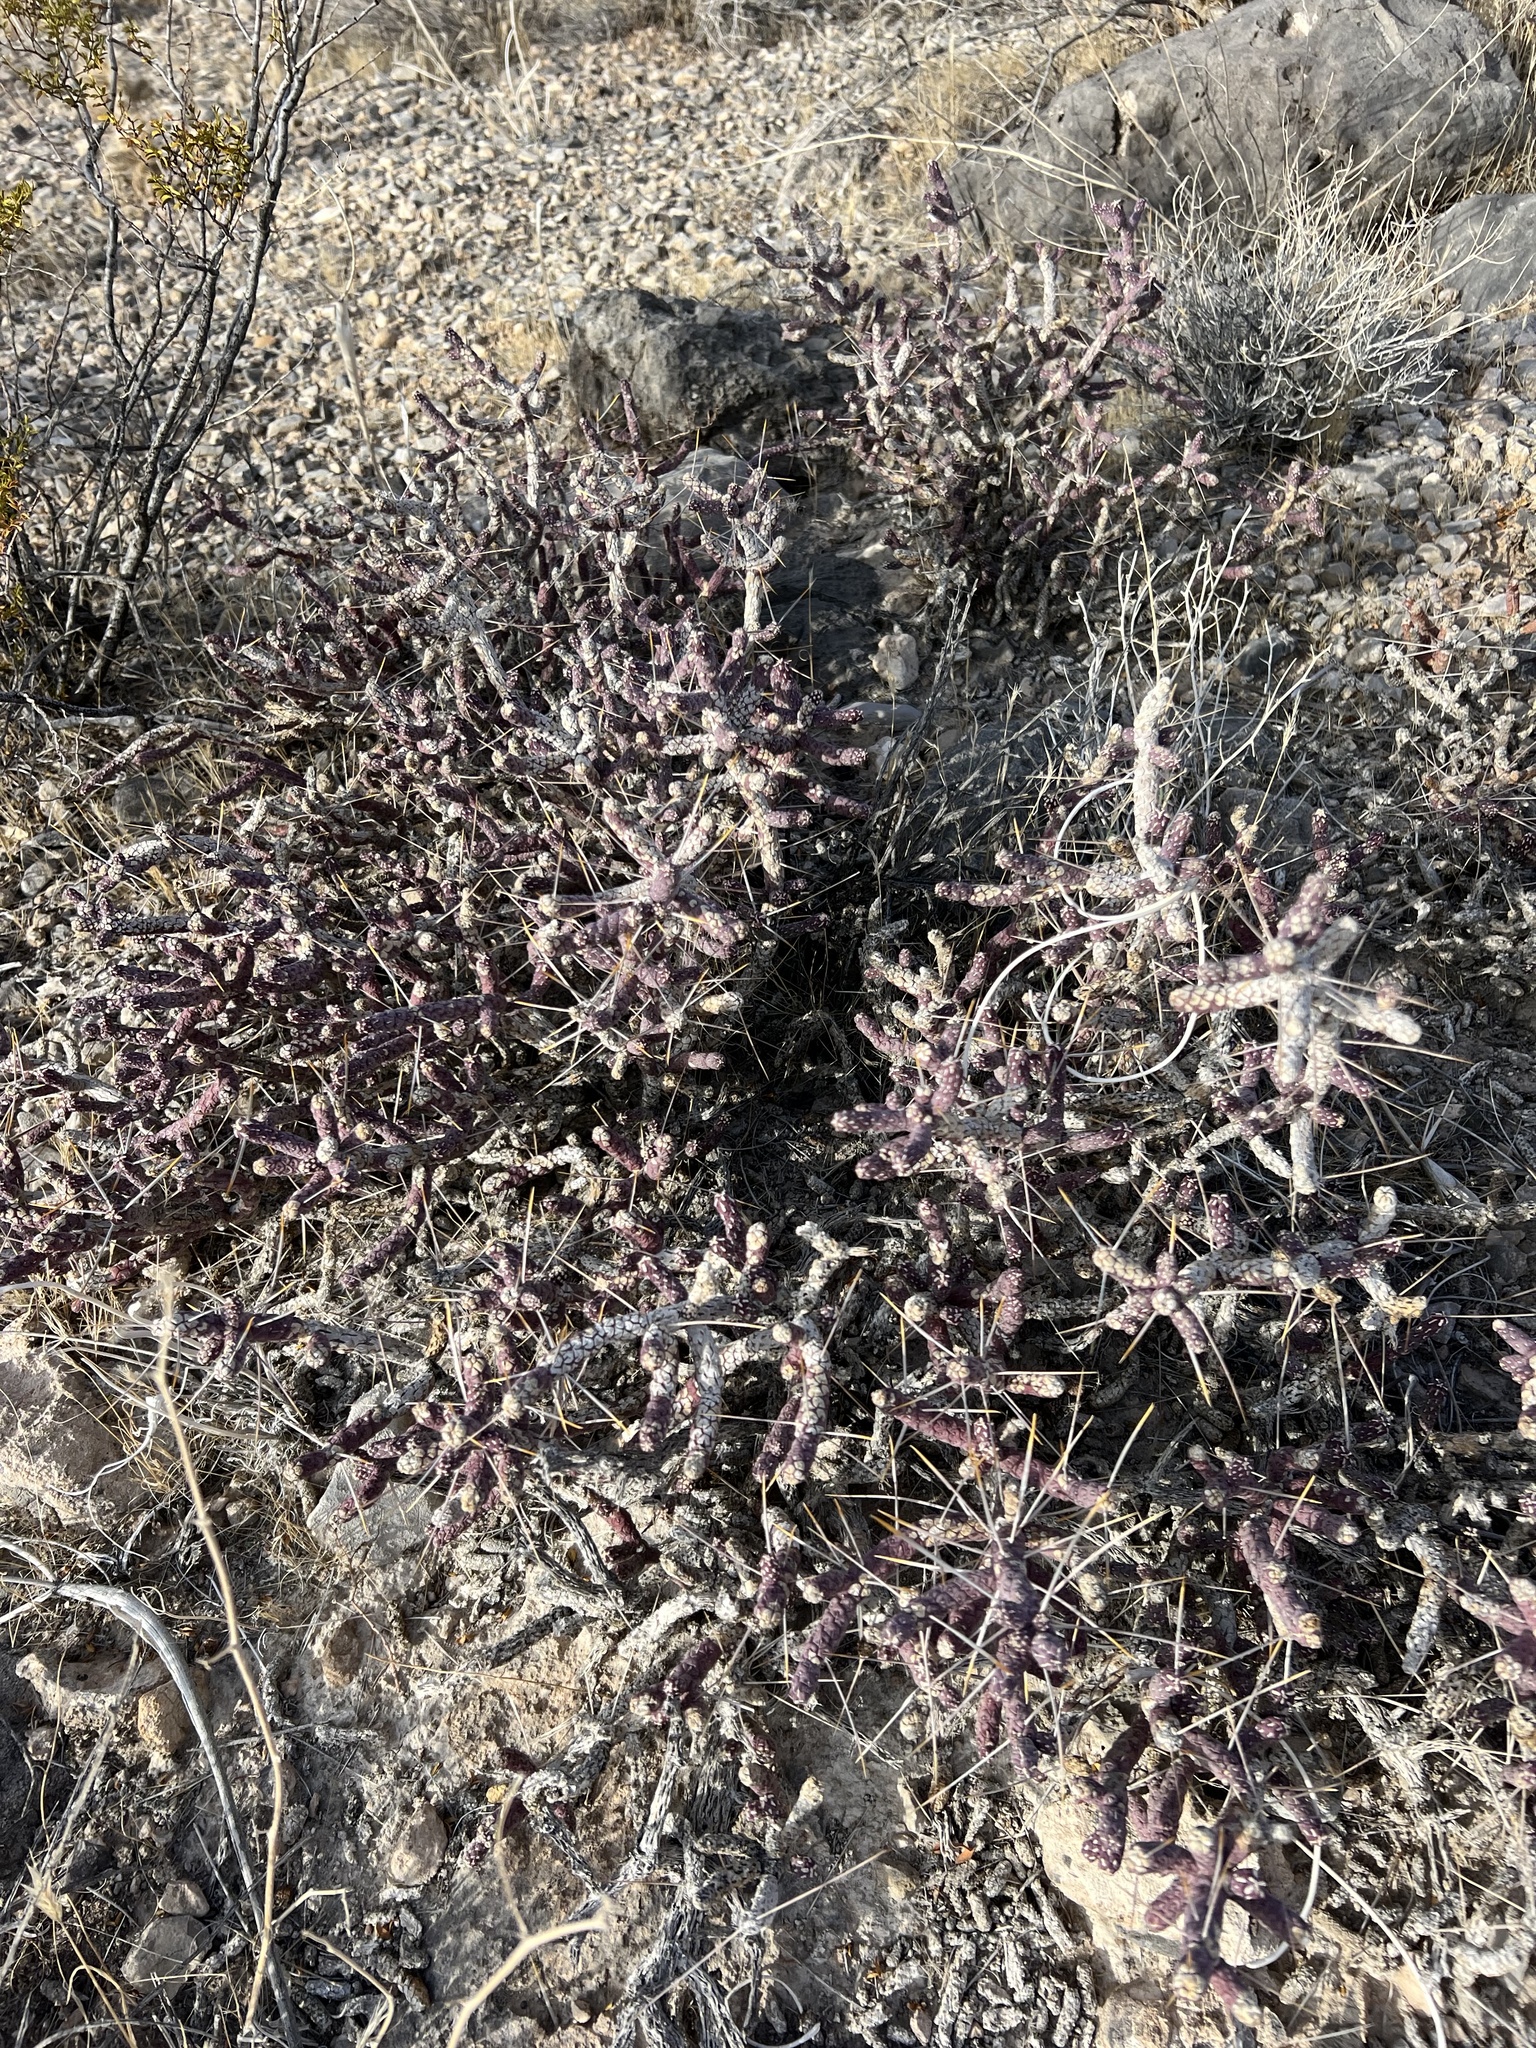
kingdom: Plantae
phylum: Tracheophyta
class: Magnoliopsida
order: Caryophyllales
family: Cactaceae
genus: Cylindropuntia
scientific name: Cylindropuntia ramosissima
